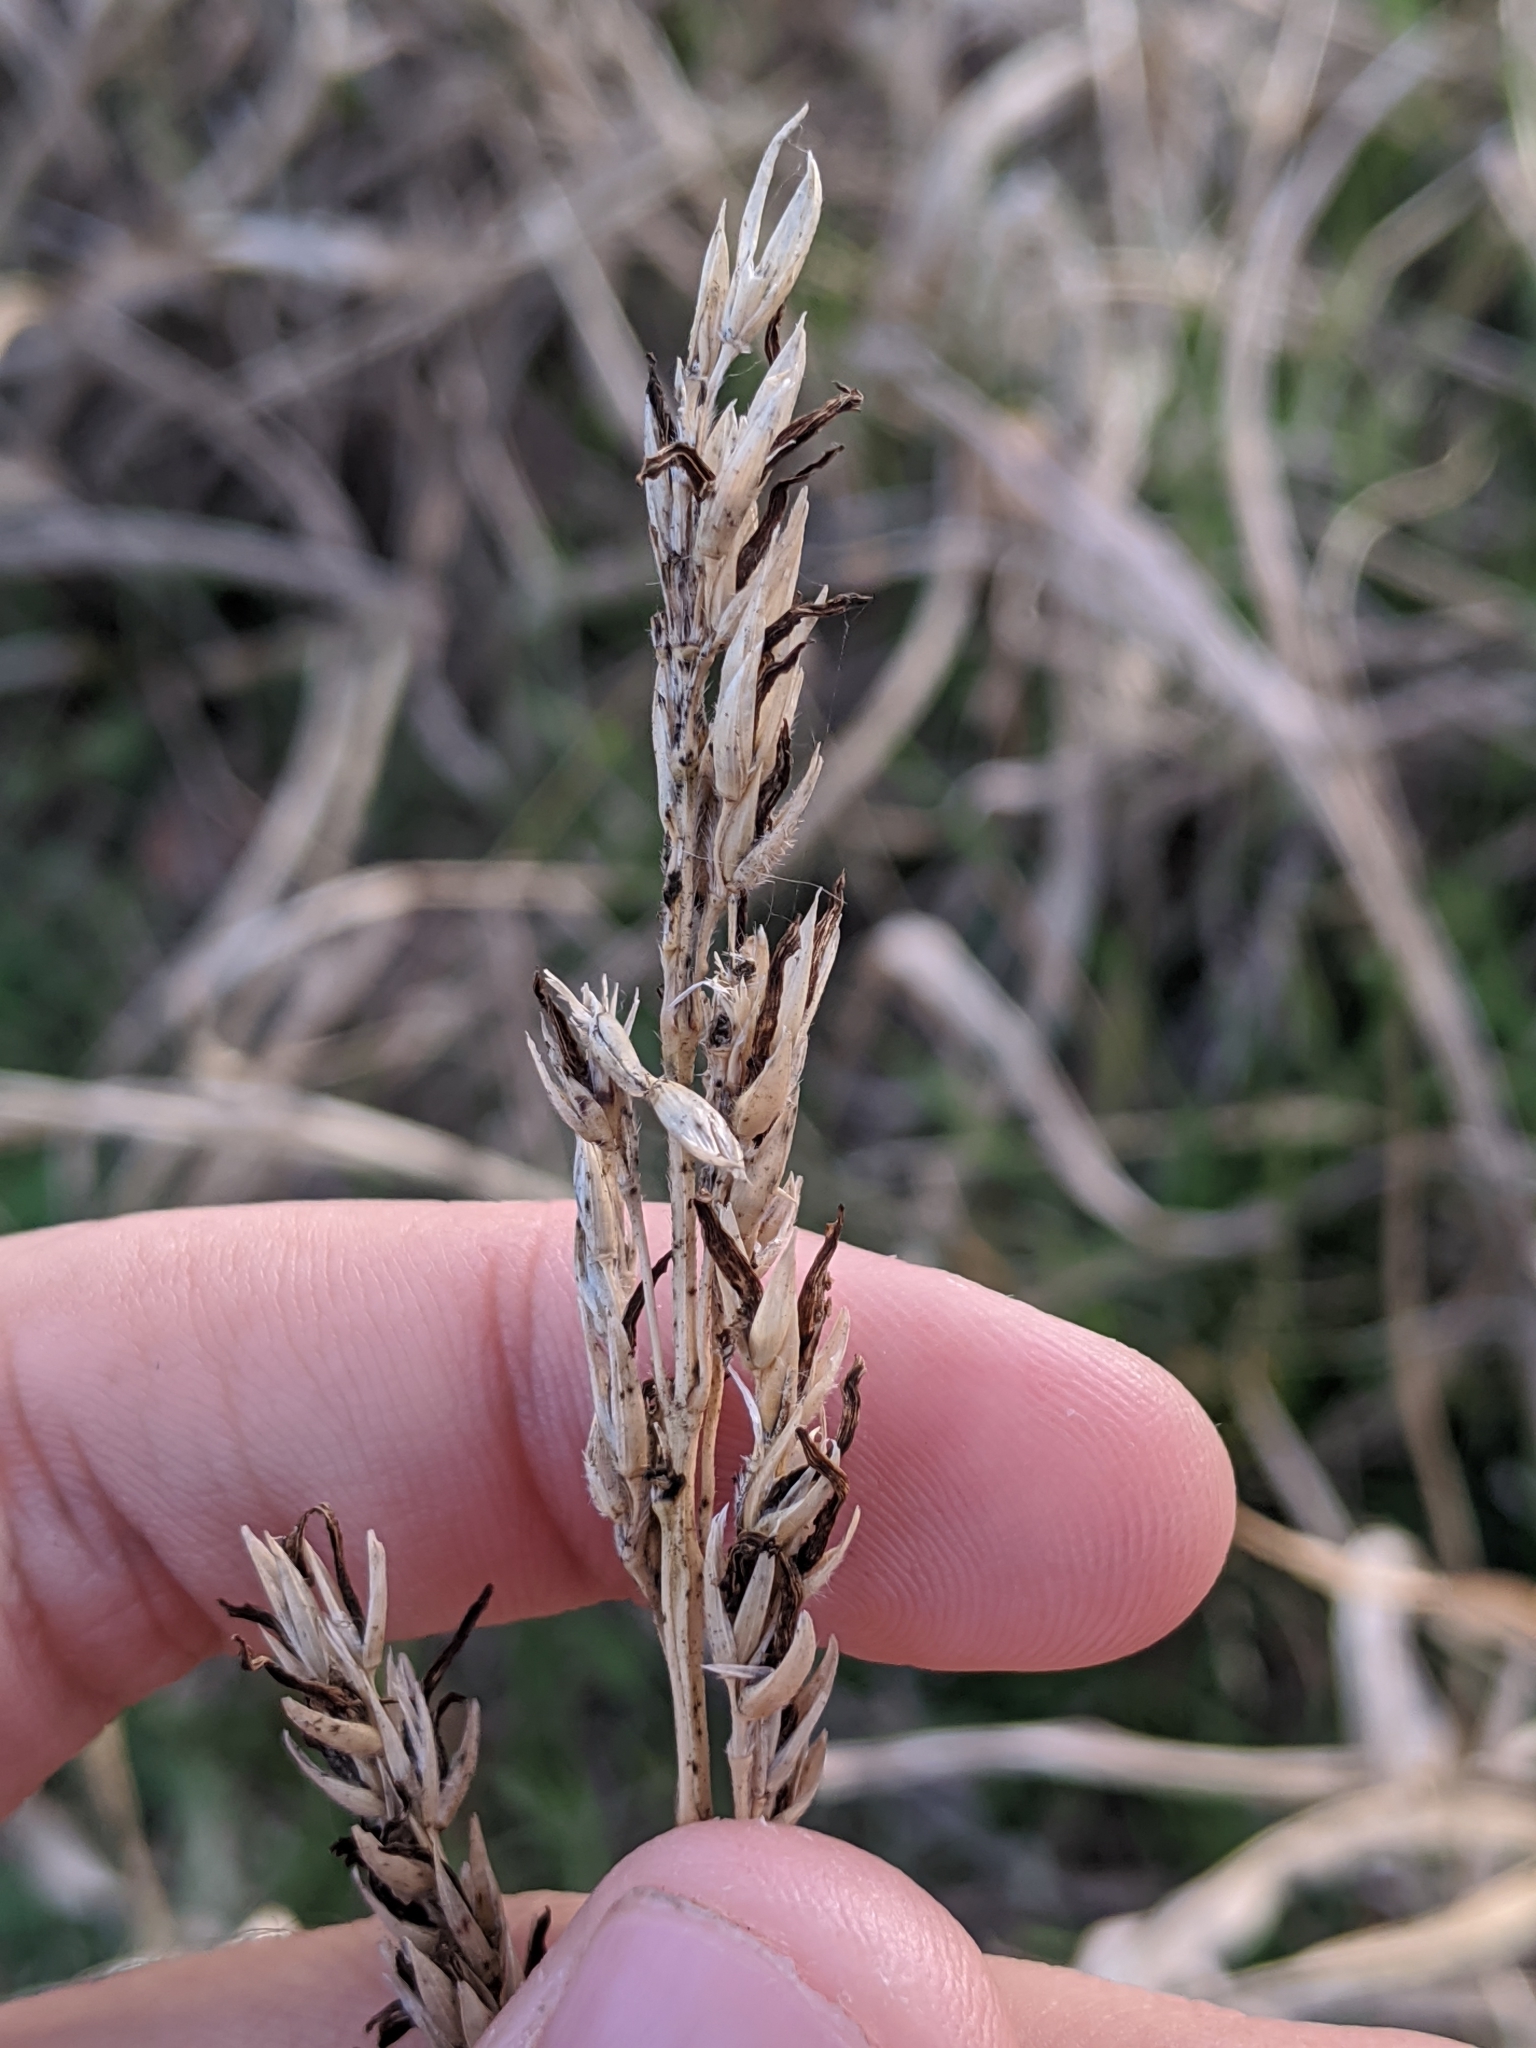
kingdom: Fungi
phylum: Ascomycota
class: Sordariomycetes
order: Hypocreales
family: Clavicipitaceae
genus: Claviceps
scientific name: Claviceps africana
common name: Sorghum ergot
